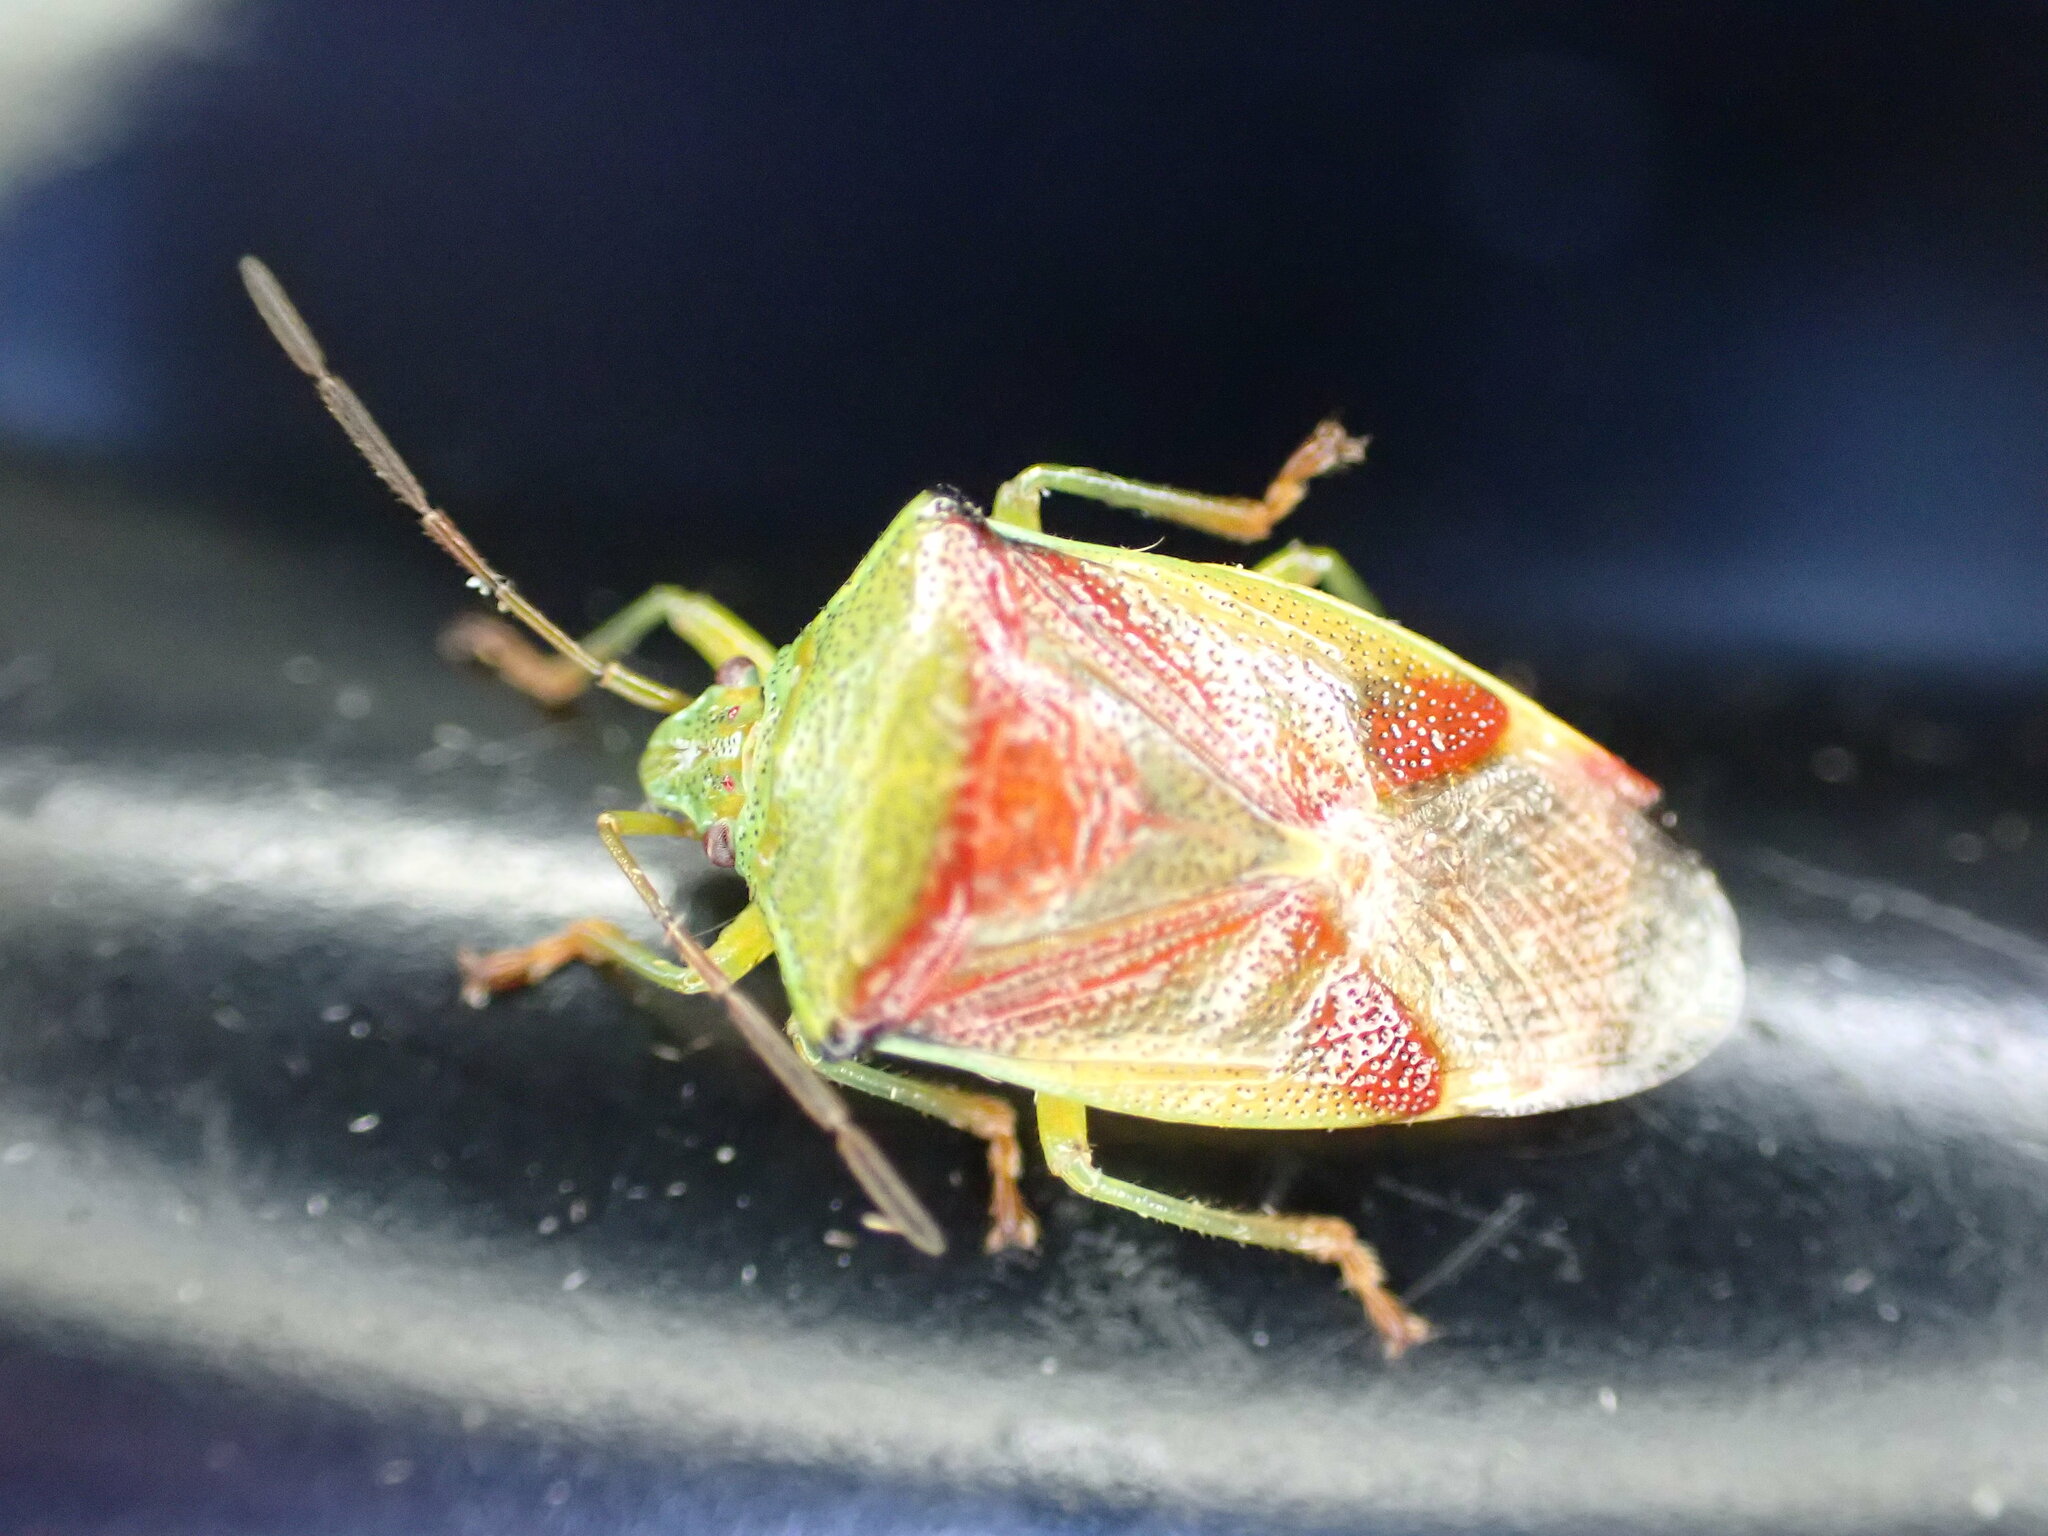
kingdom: Animalia
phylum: Arthropoda
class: Insecta
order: Hemiptera
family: Acanthosomatidae
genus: Elasmostethus
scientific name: Elasmostethus interstinctus
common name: Birch shieldbug
